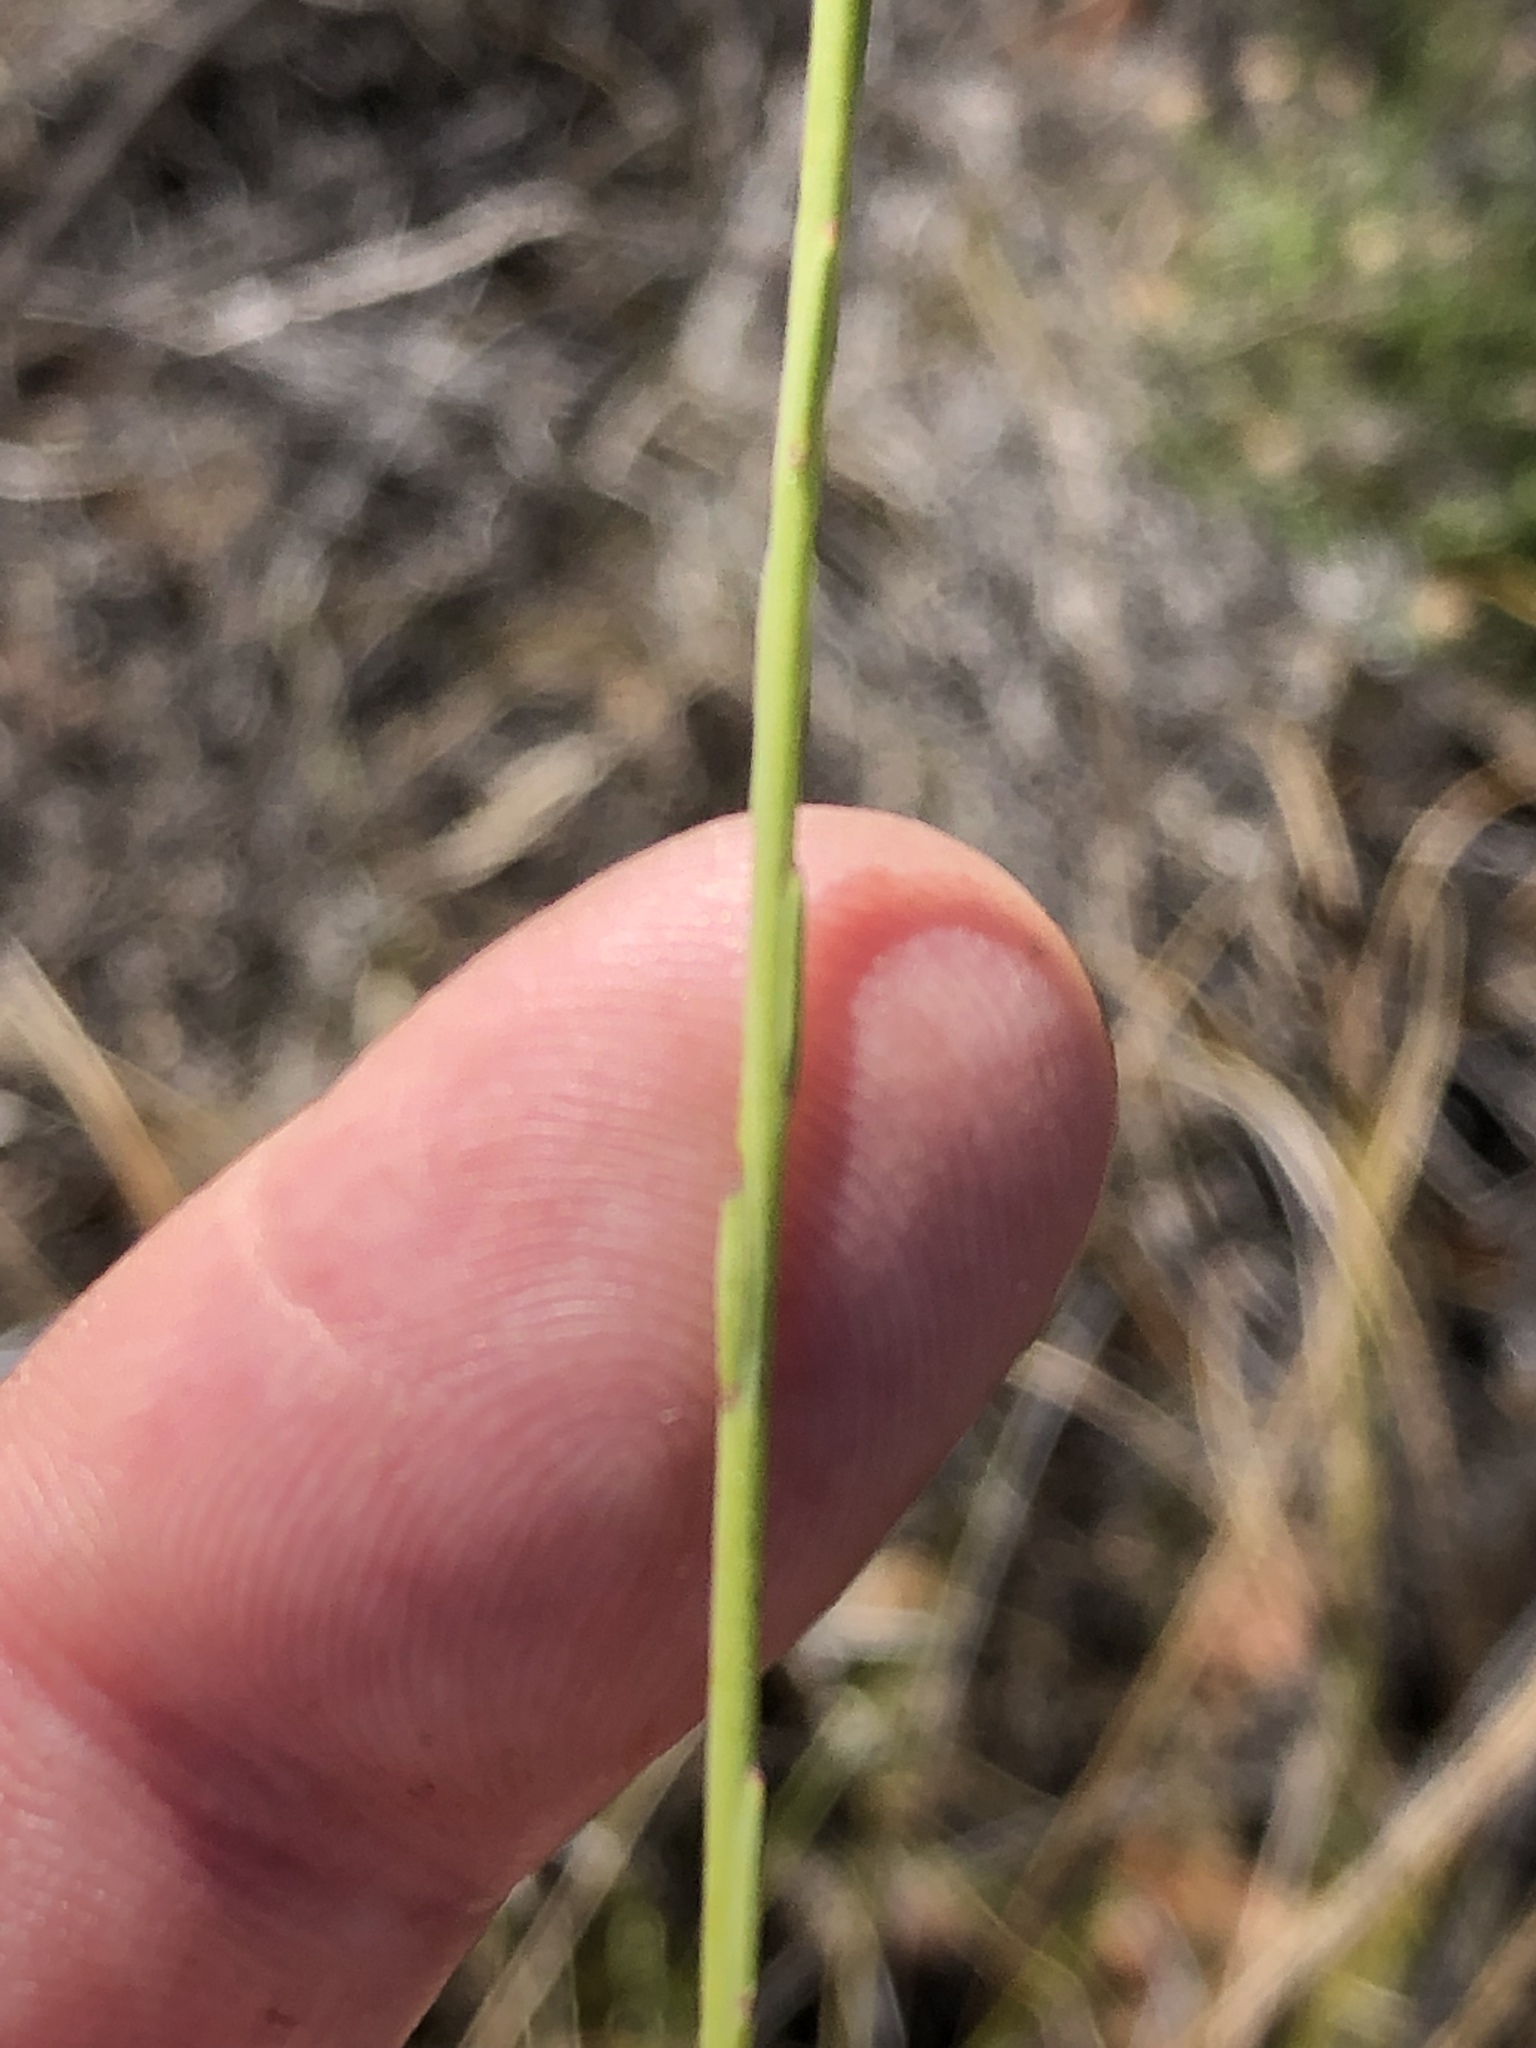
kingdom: Plantae
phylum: Tracheophyta
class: Magnoliopsida
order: Fabales
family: Polygalaceae
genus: Polygala
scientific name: Polygala wittebergensis
